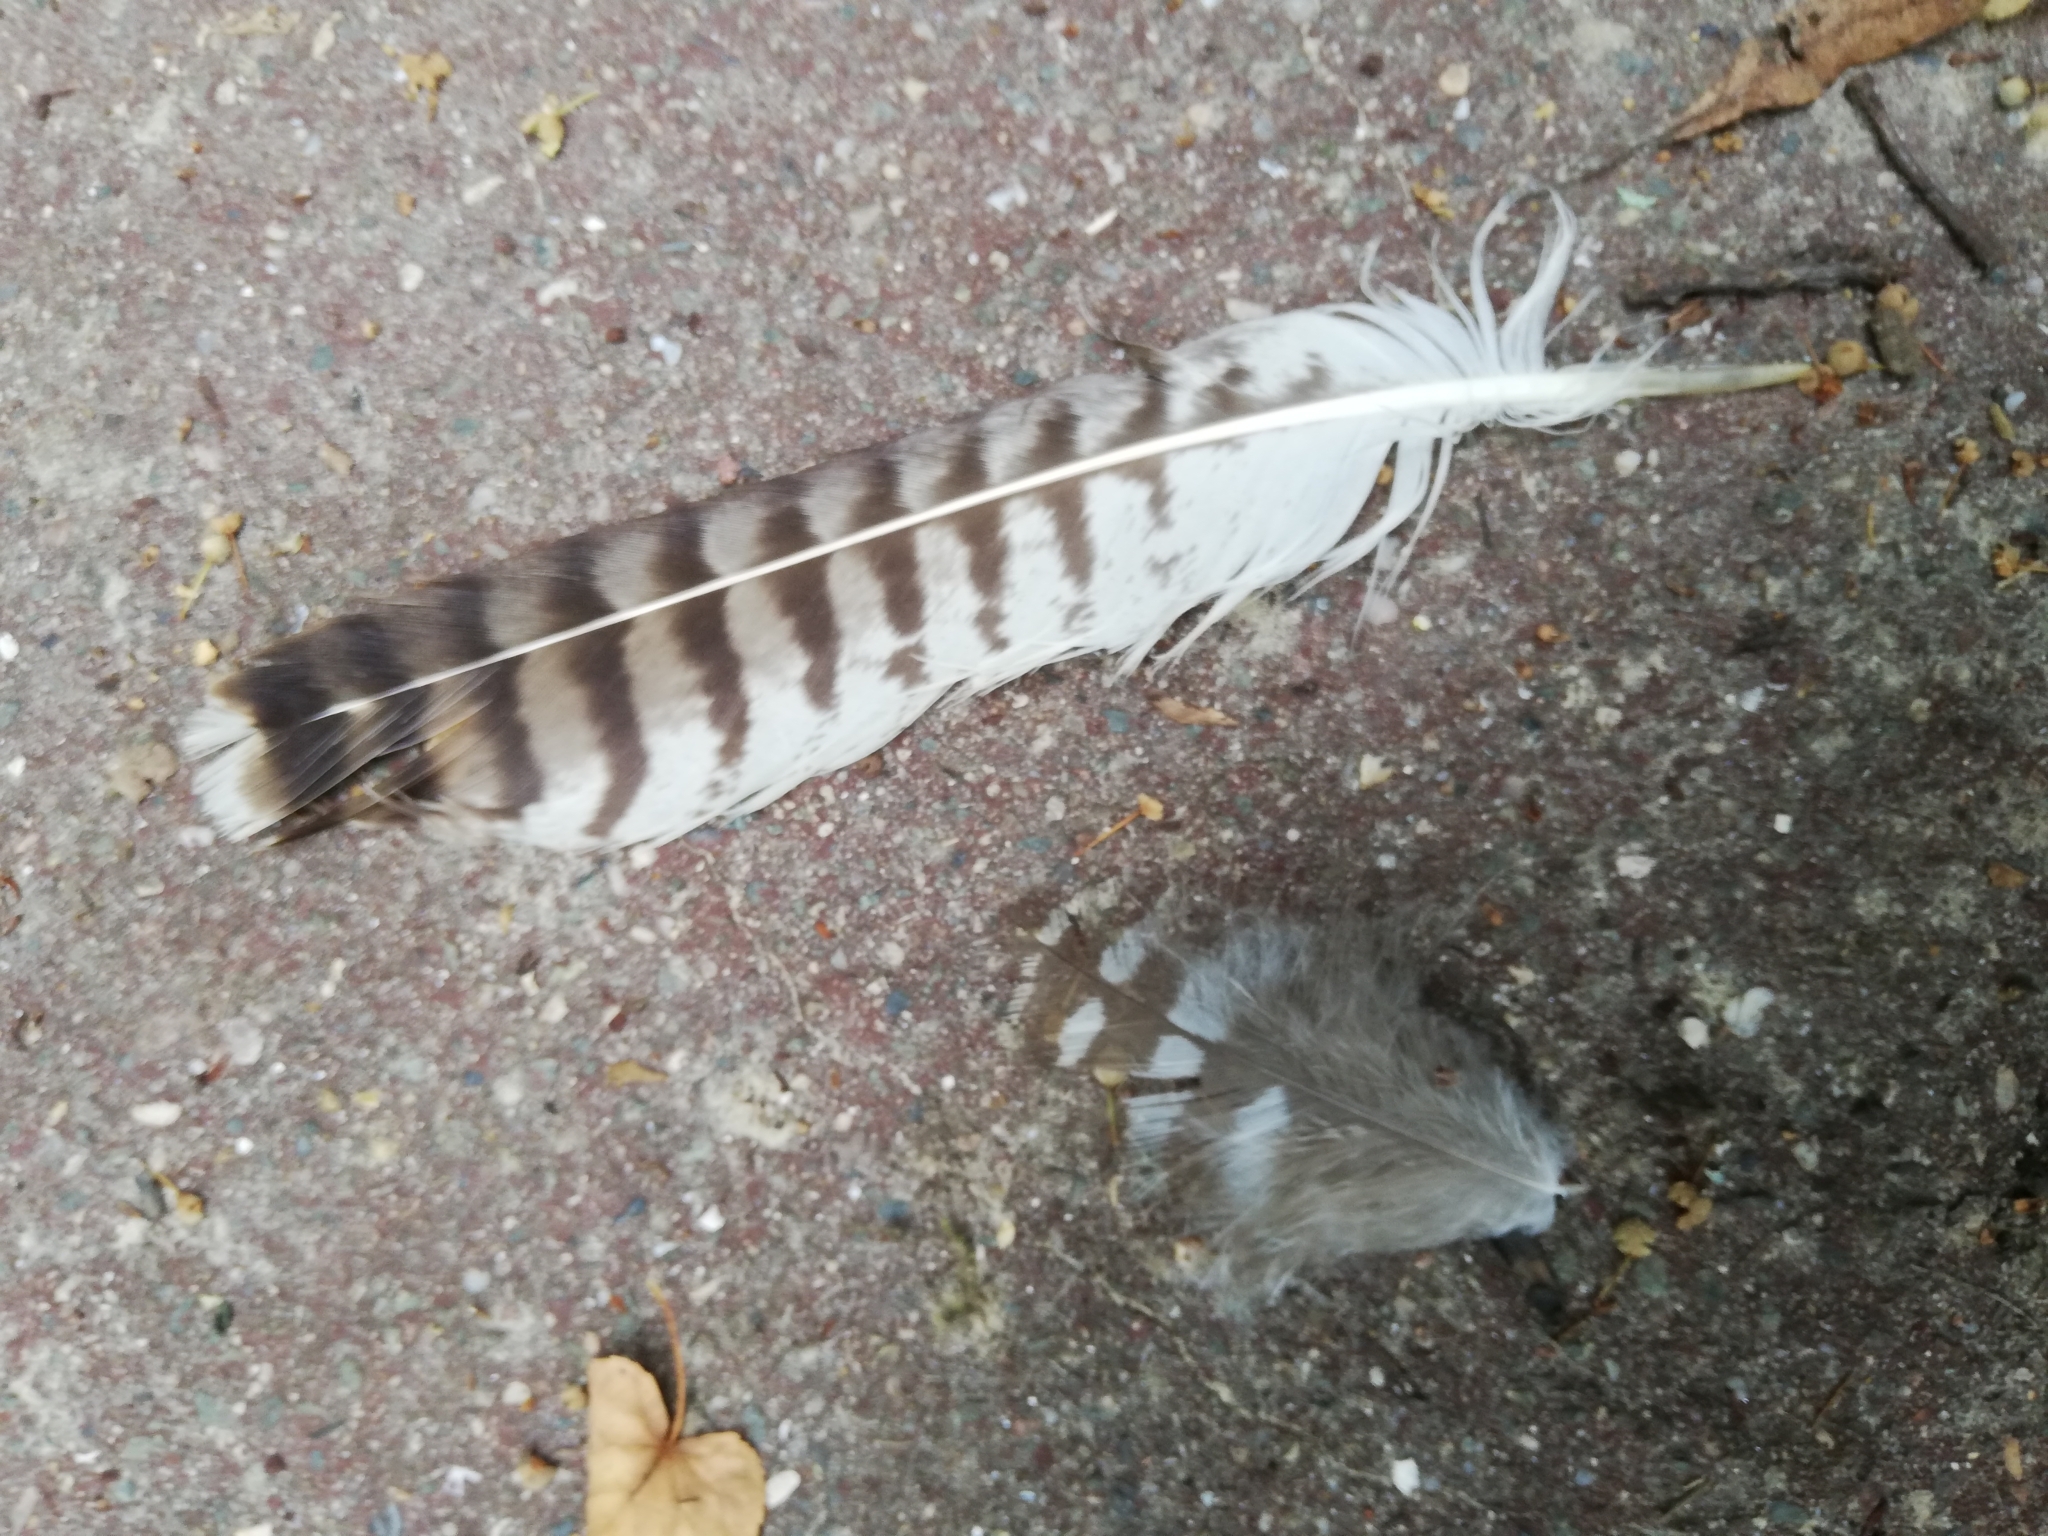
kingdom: Animalia
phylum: Chordata
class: Aves
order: Accipitriformes
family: Accipitridae
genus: Buteo
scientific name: Buteo buteo
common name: Common buzzard
